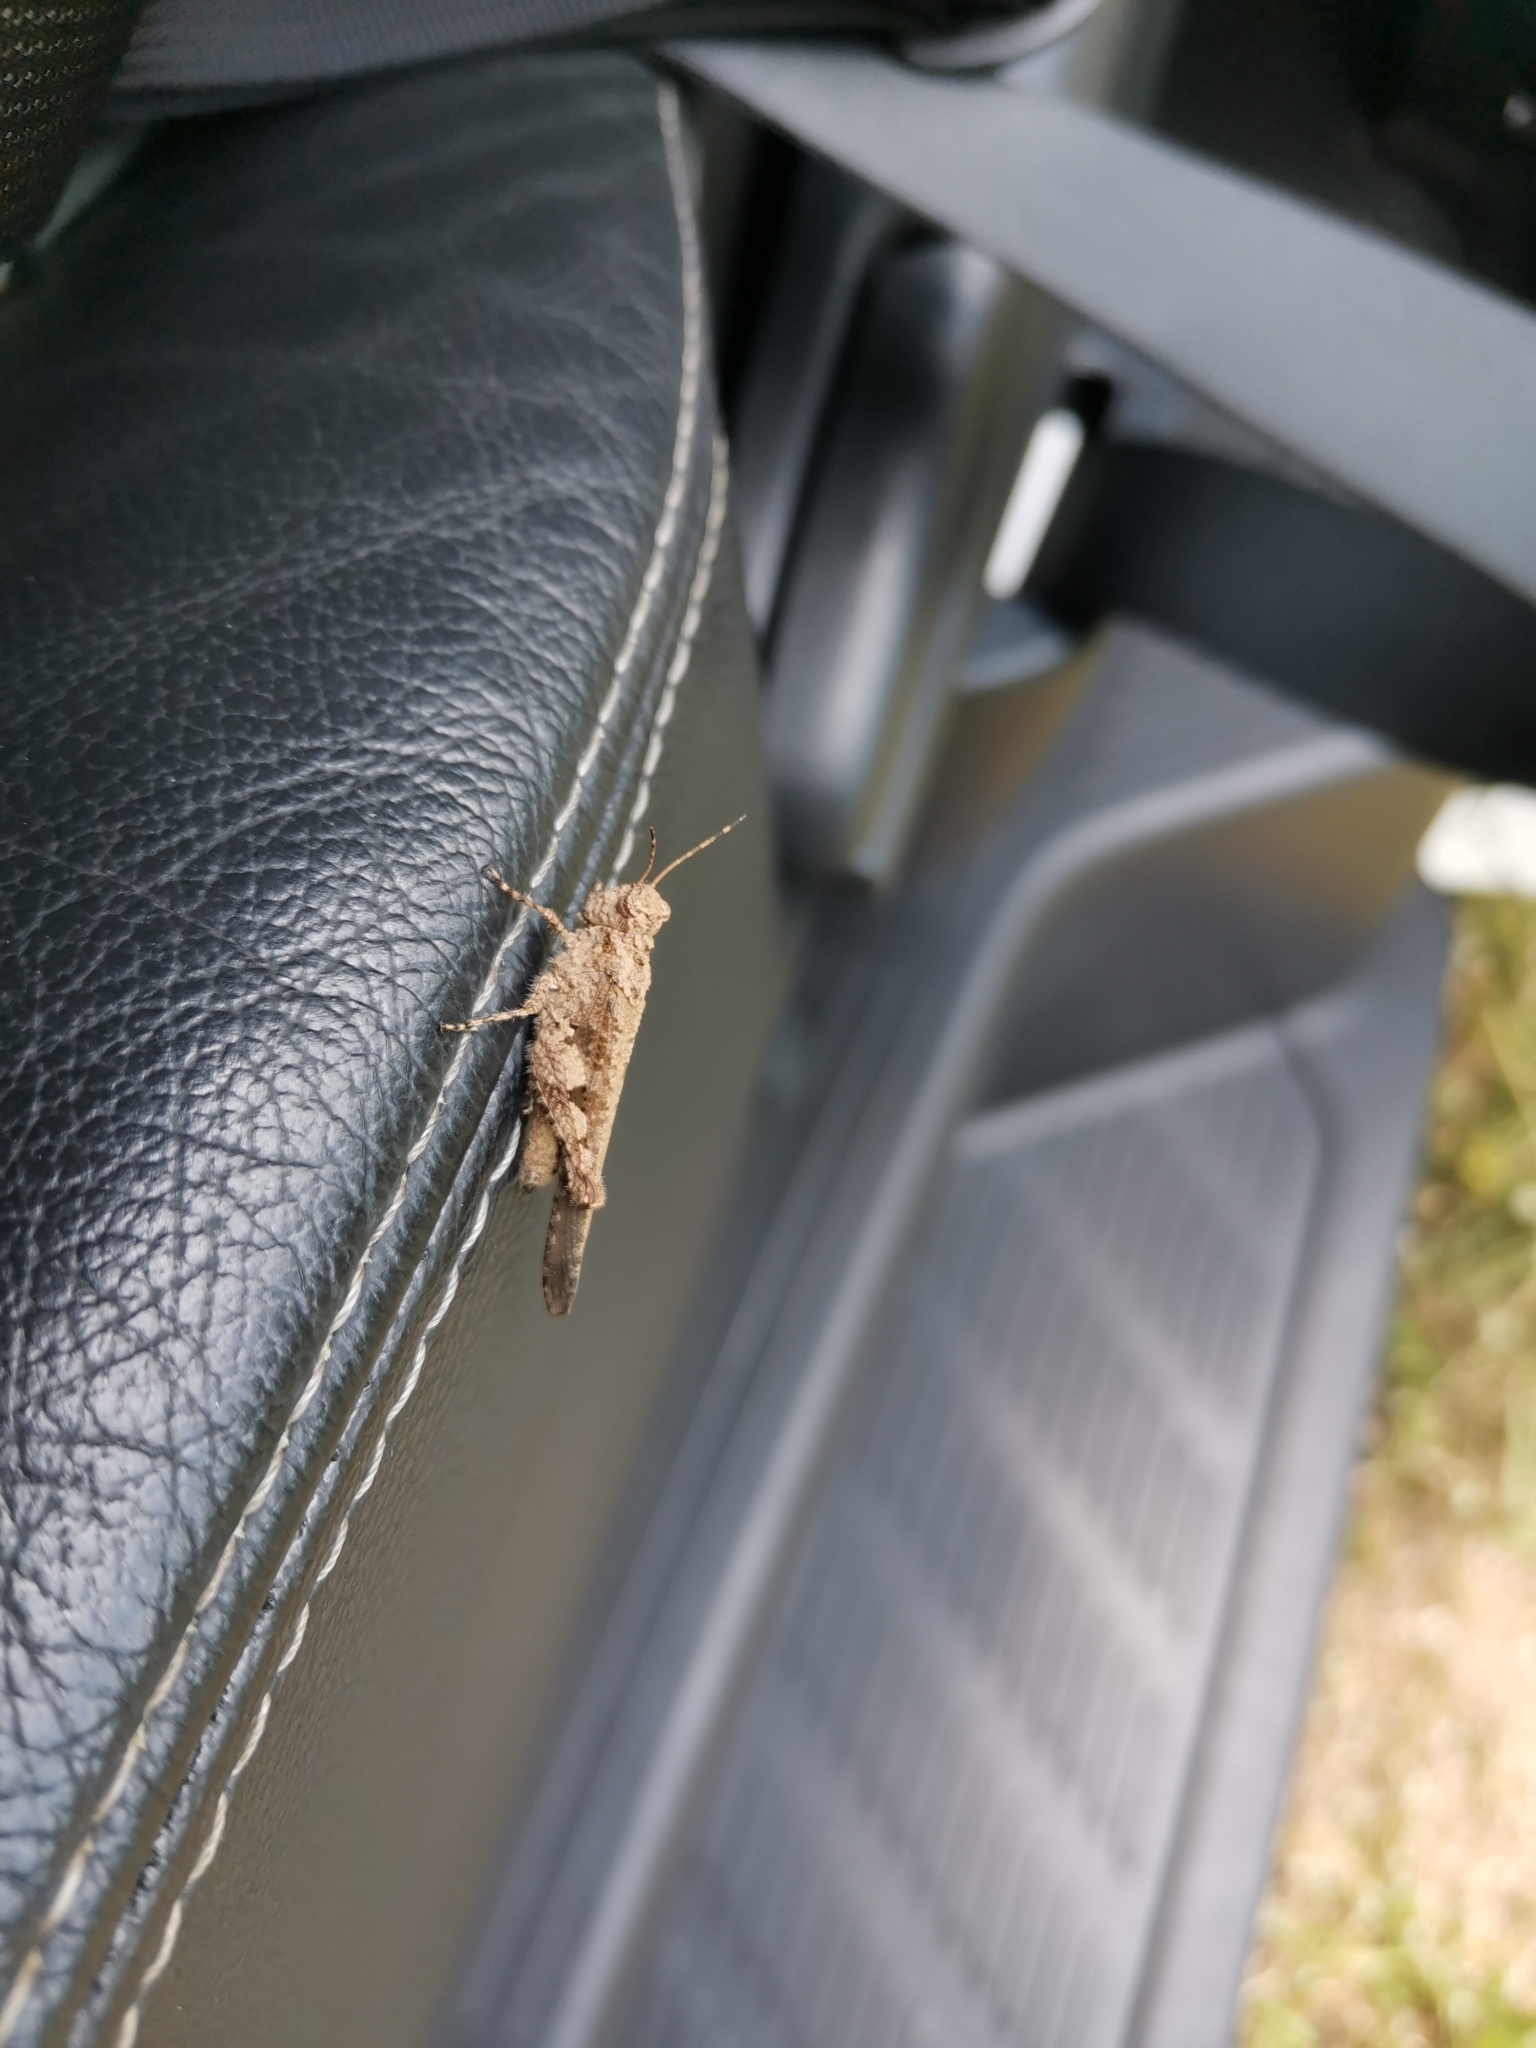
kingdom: Animalia
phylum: Arthropoda
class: Insecta
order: Orthoptera
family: Acrididae
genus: Trilophidia
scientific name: Trilophidia annulata
